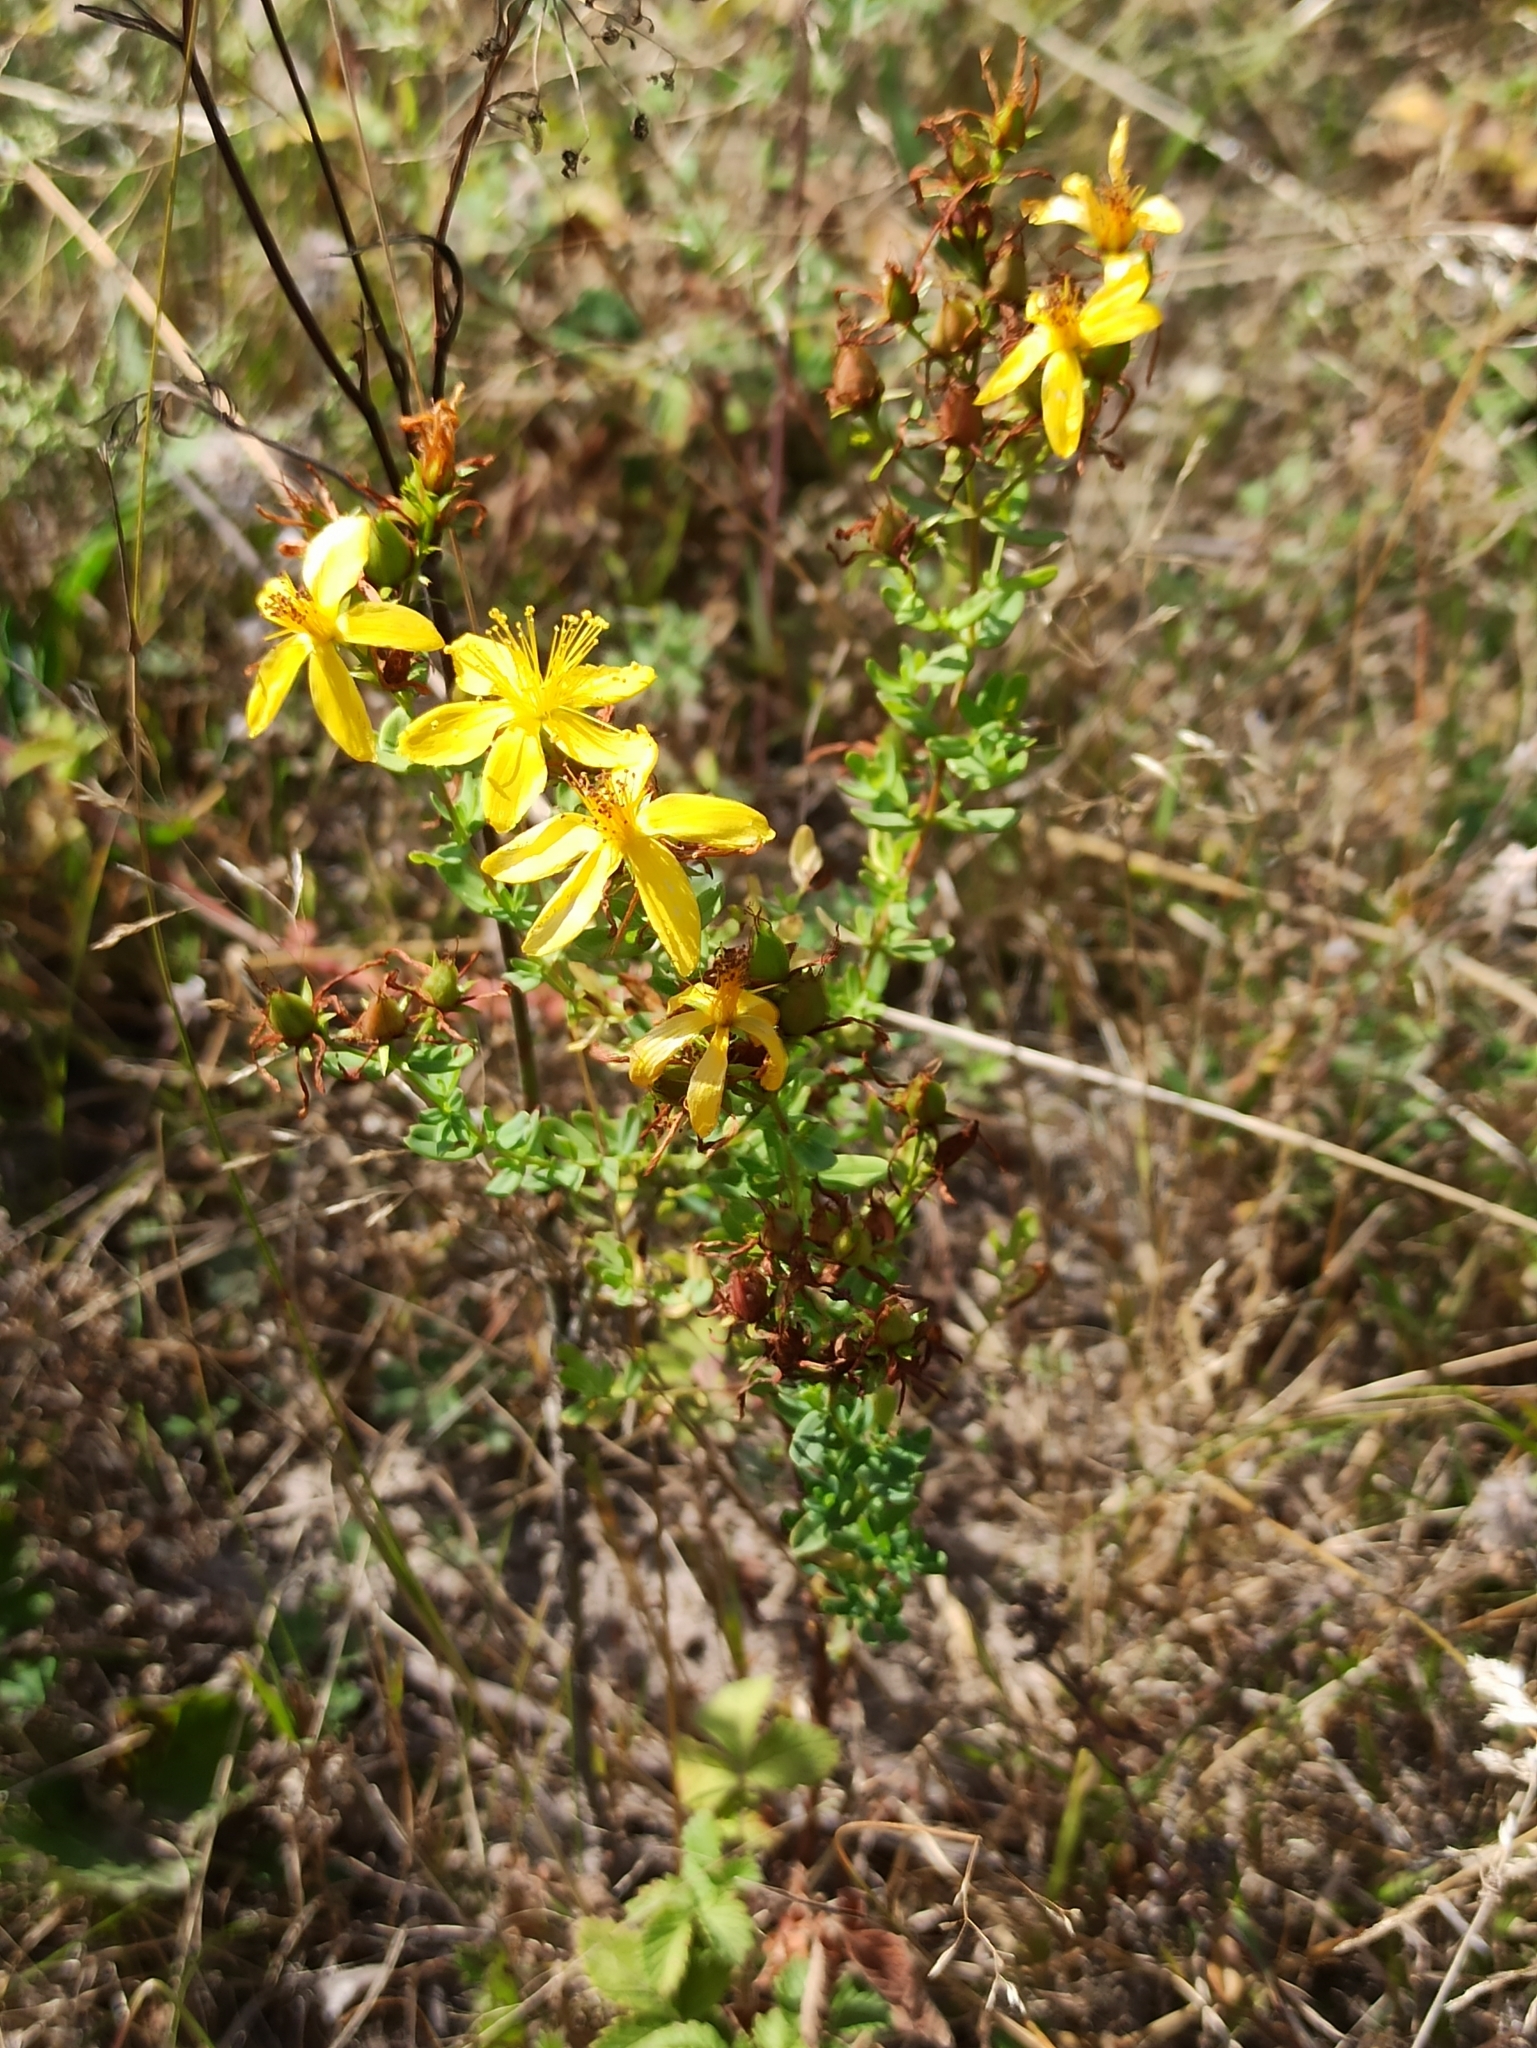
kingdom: Plantae
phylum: Tracheophyta
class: Magnoliopsida
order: Malpighiales
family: Hypericaceae
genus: Hypericum
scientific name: Hypericum perforatum
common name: Common st. johnswort
